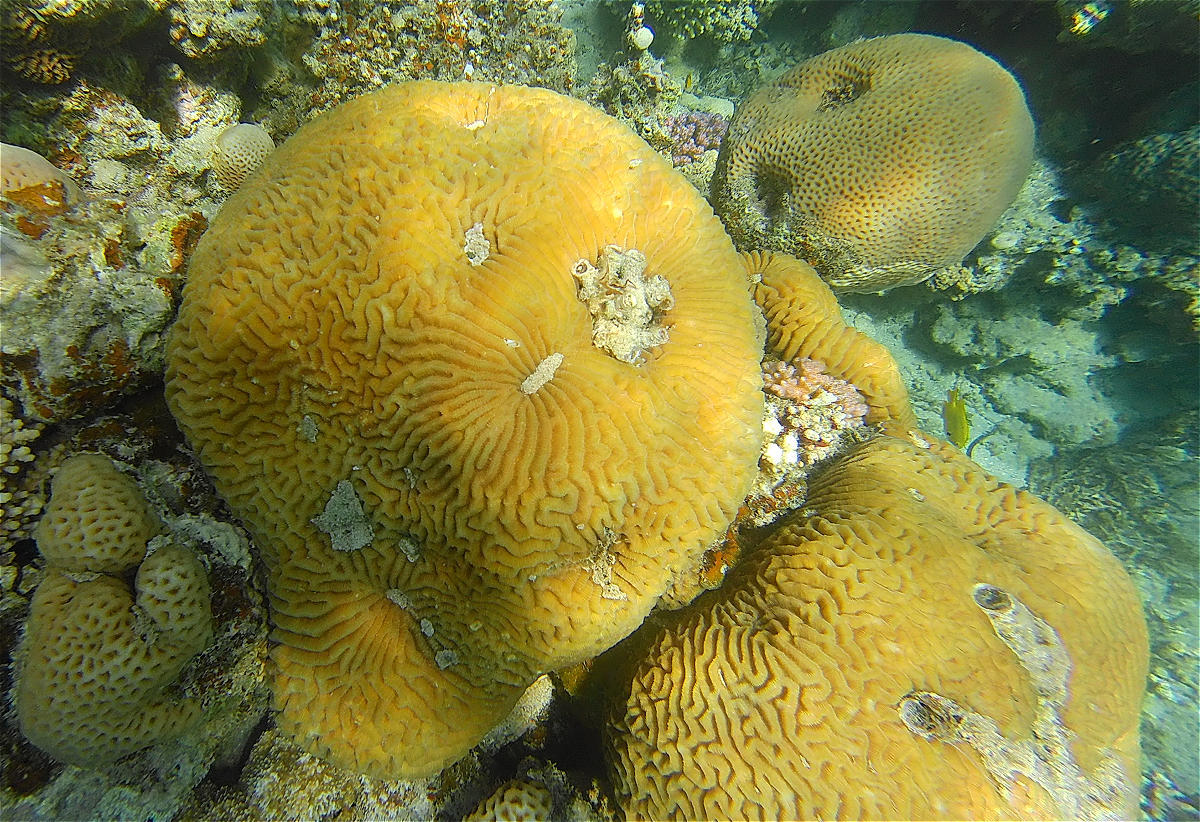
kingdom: Animalia
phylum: Cnidaria
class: Anthozoa
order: Scleractinia
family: Merulinidae
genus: Platygyra
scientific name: Platygyra daedalea
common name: Lesser valley coral
